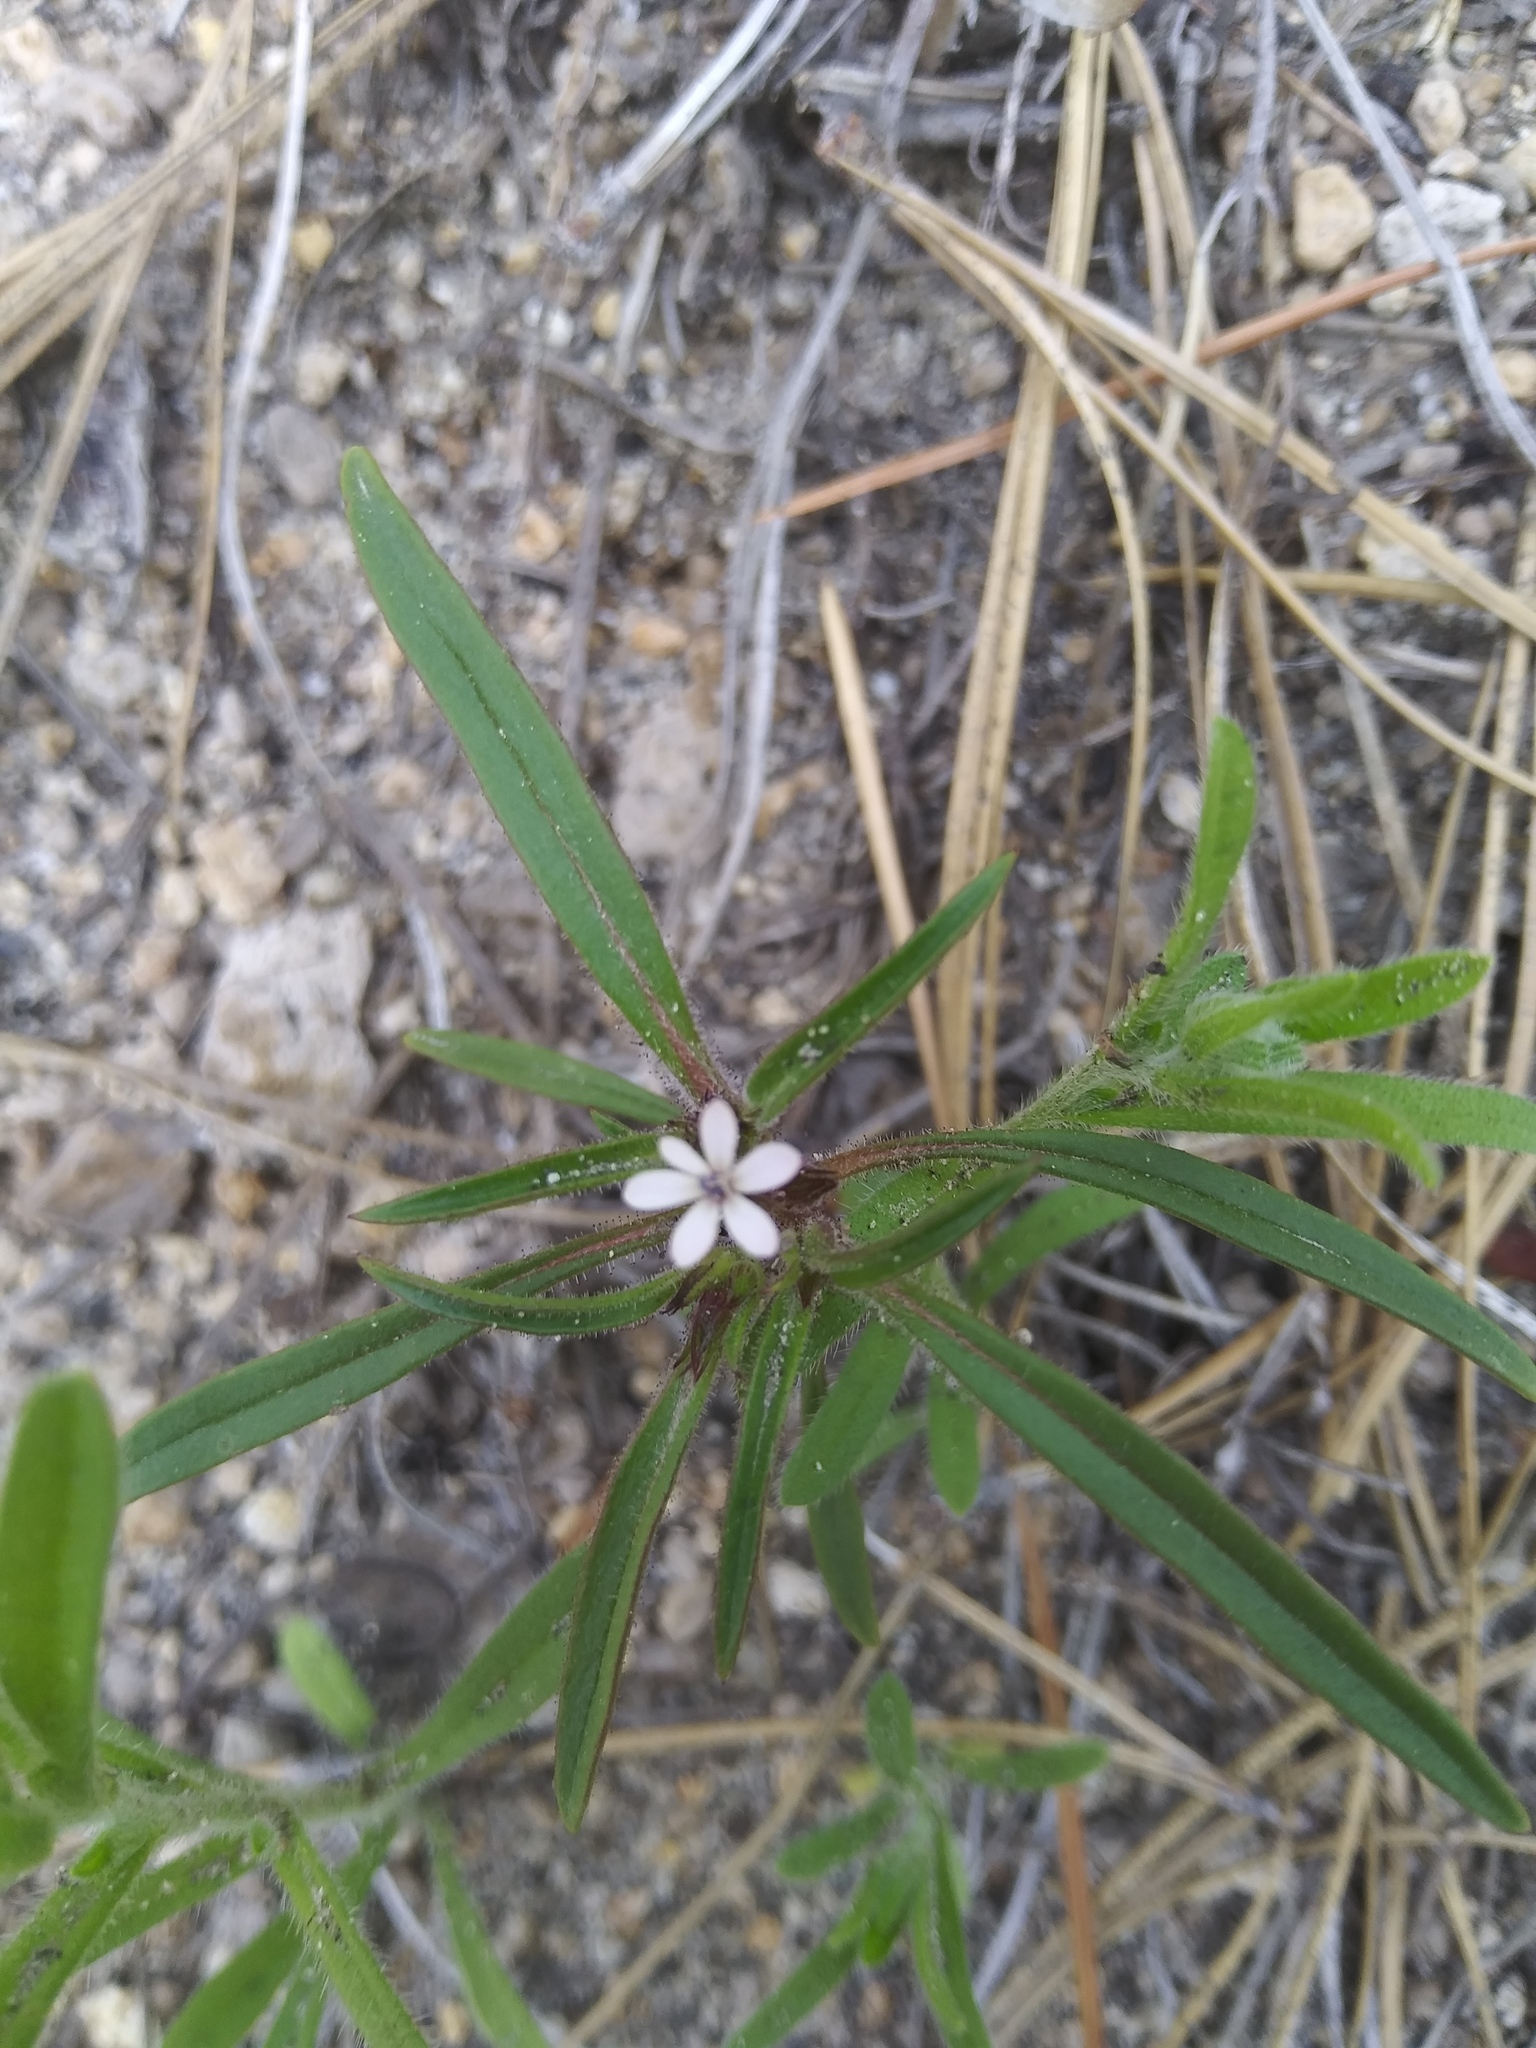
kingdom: Plantae
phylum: Tracheophyta
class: Magnoliopsida
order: Ericales
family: Polemoniaceae
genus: Collomia
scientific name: Collomia tinctoria
